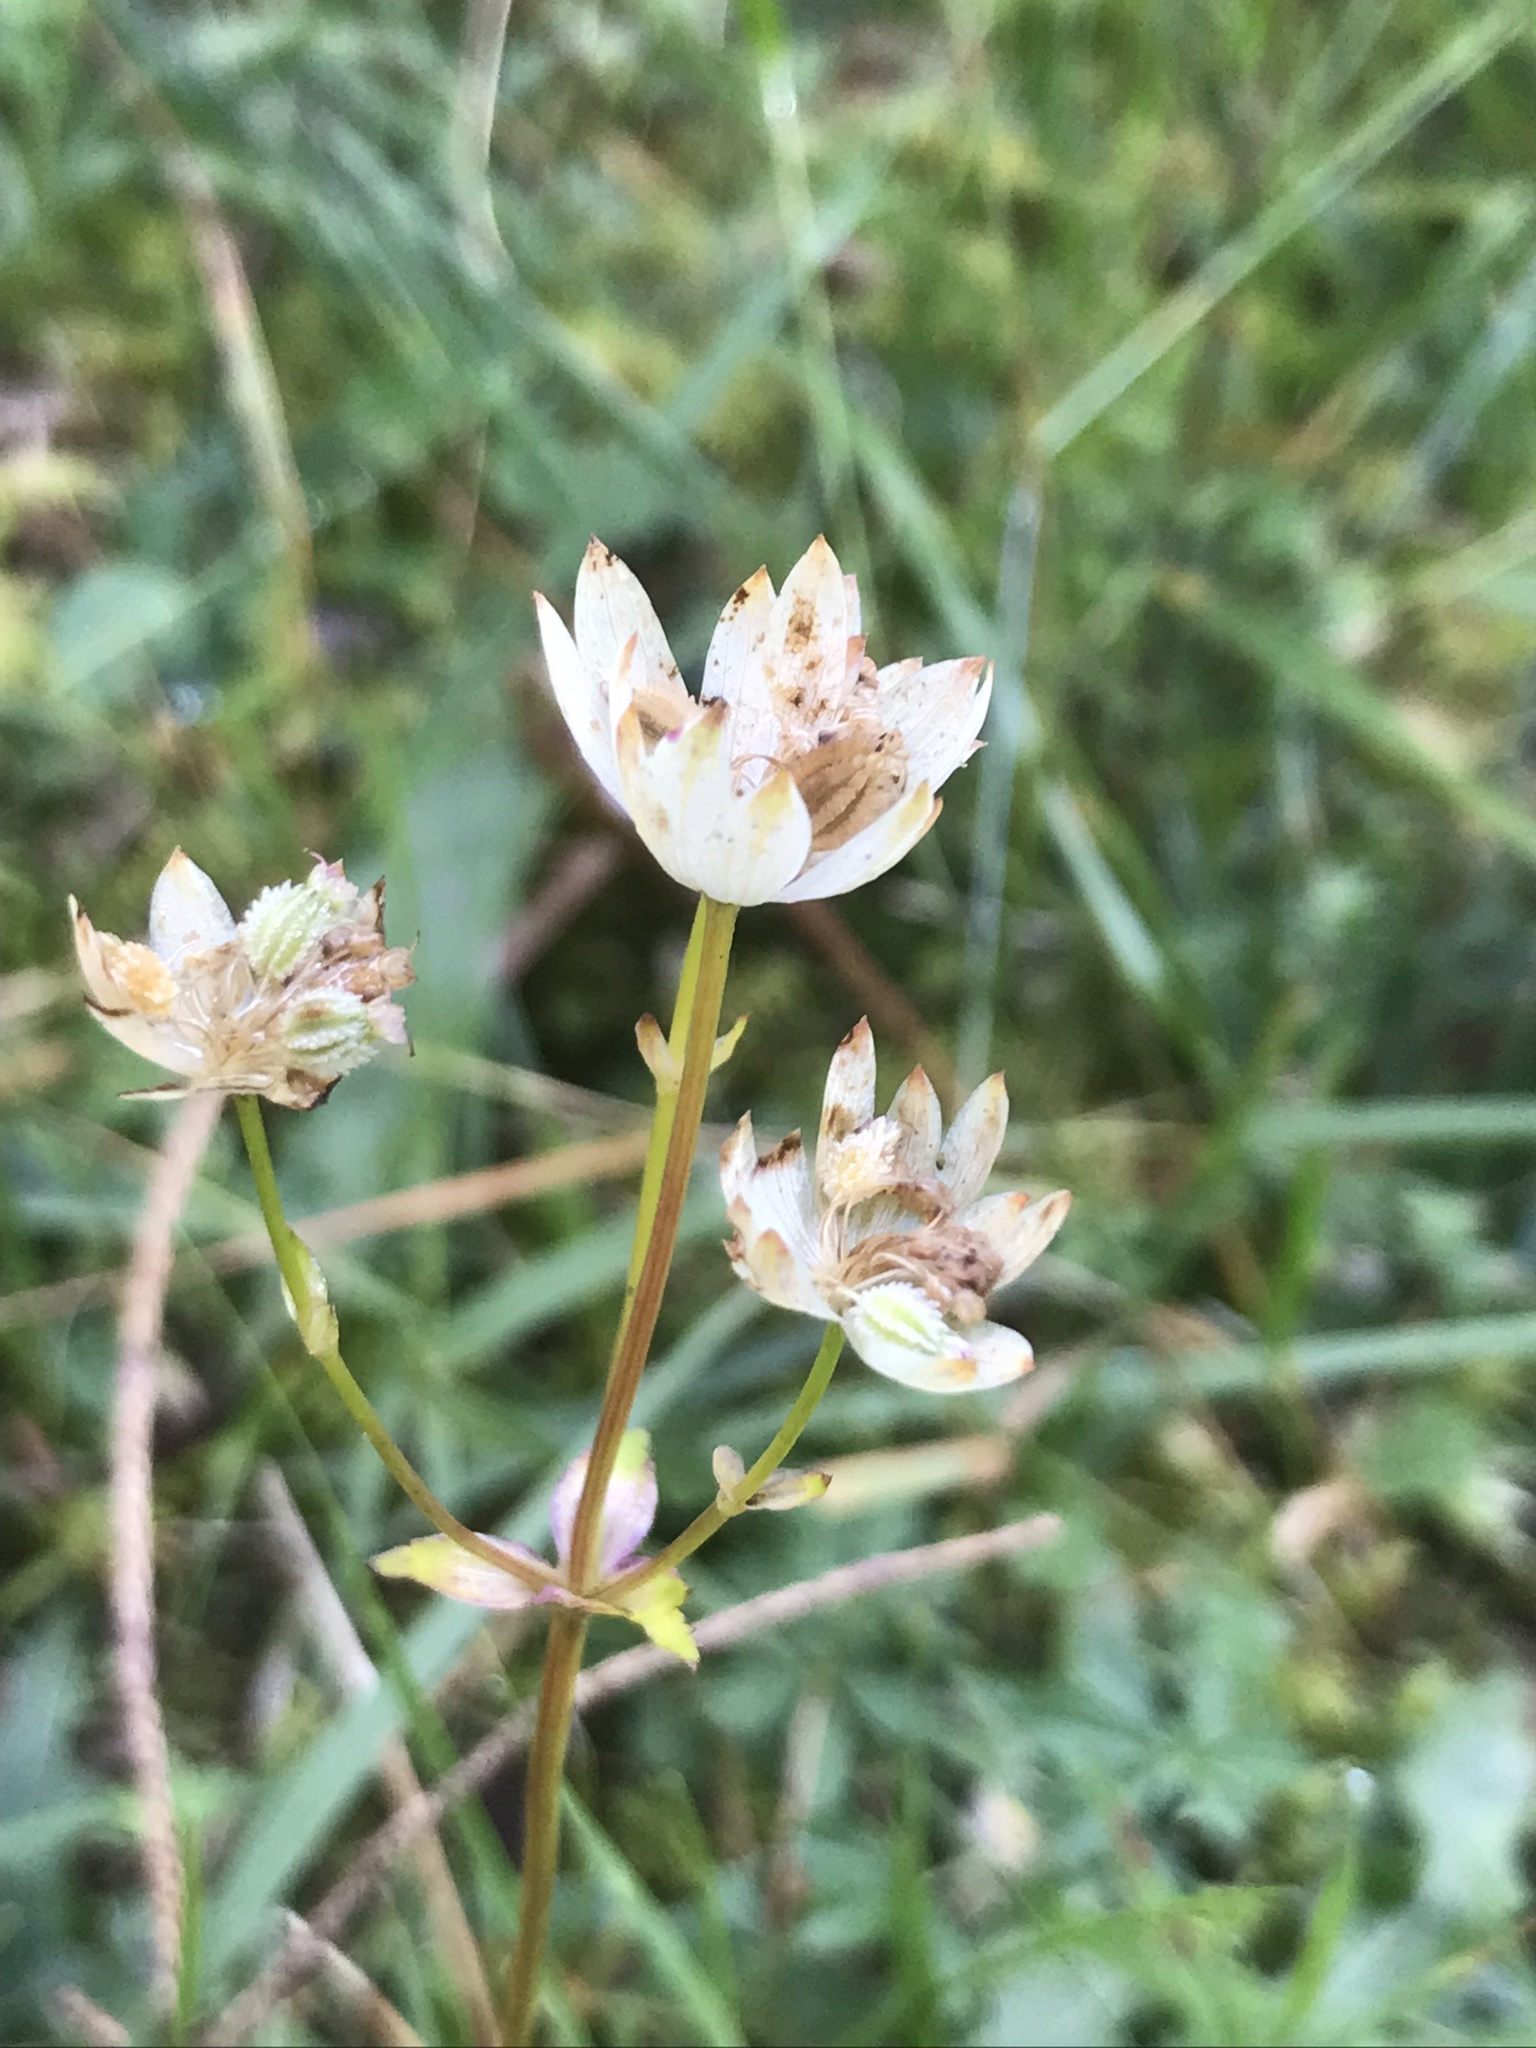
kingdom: Plantae
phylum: Tracheophyta
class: Magnoliopsida
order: Apiales
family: Apiaceae
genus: Astrantia
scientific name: Astrantia bavarica
